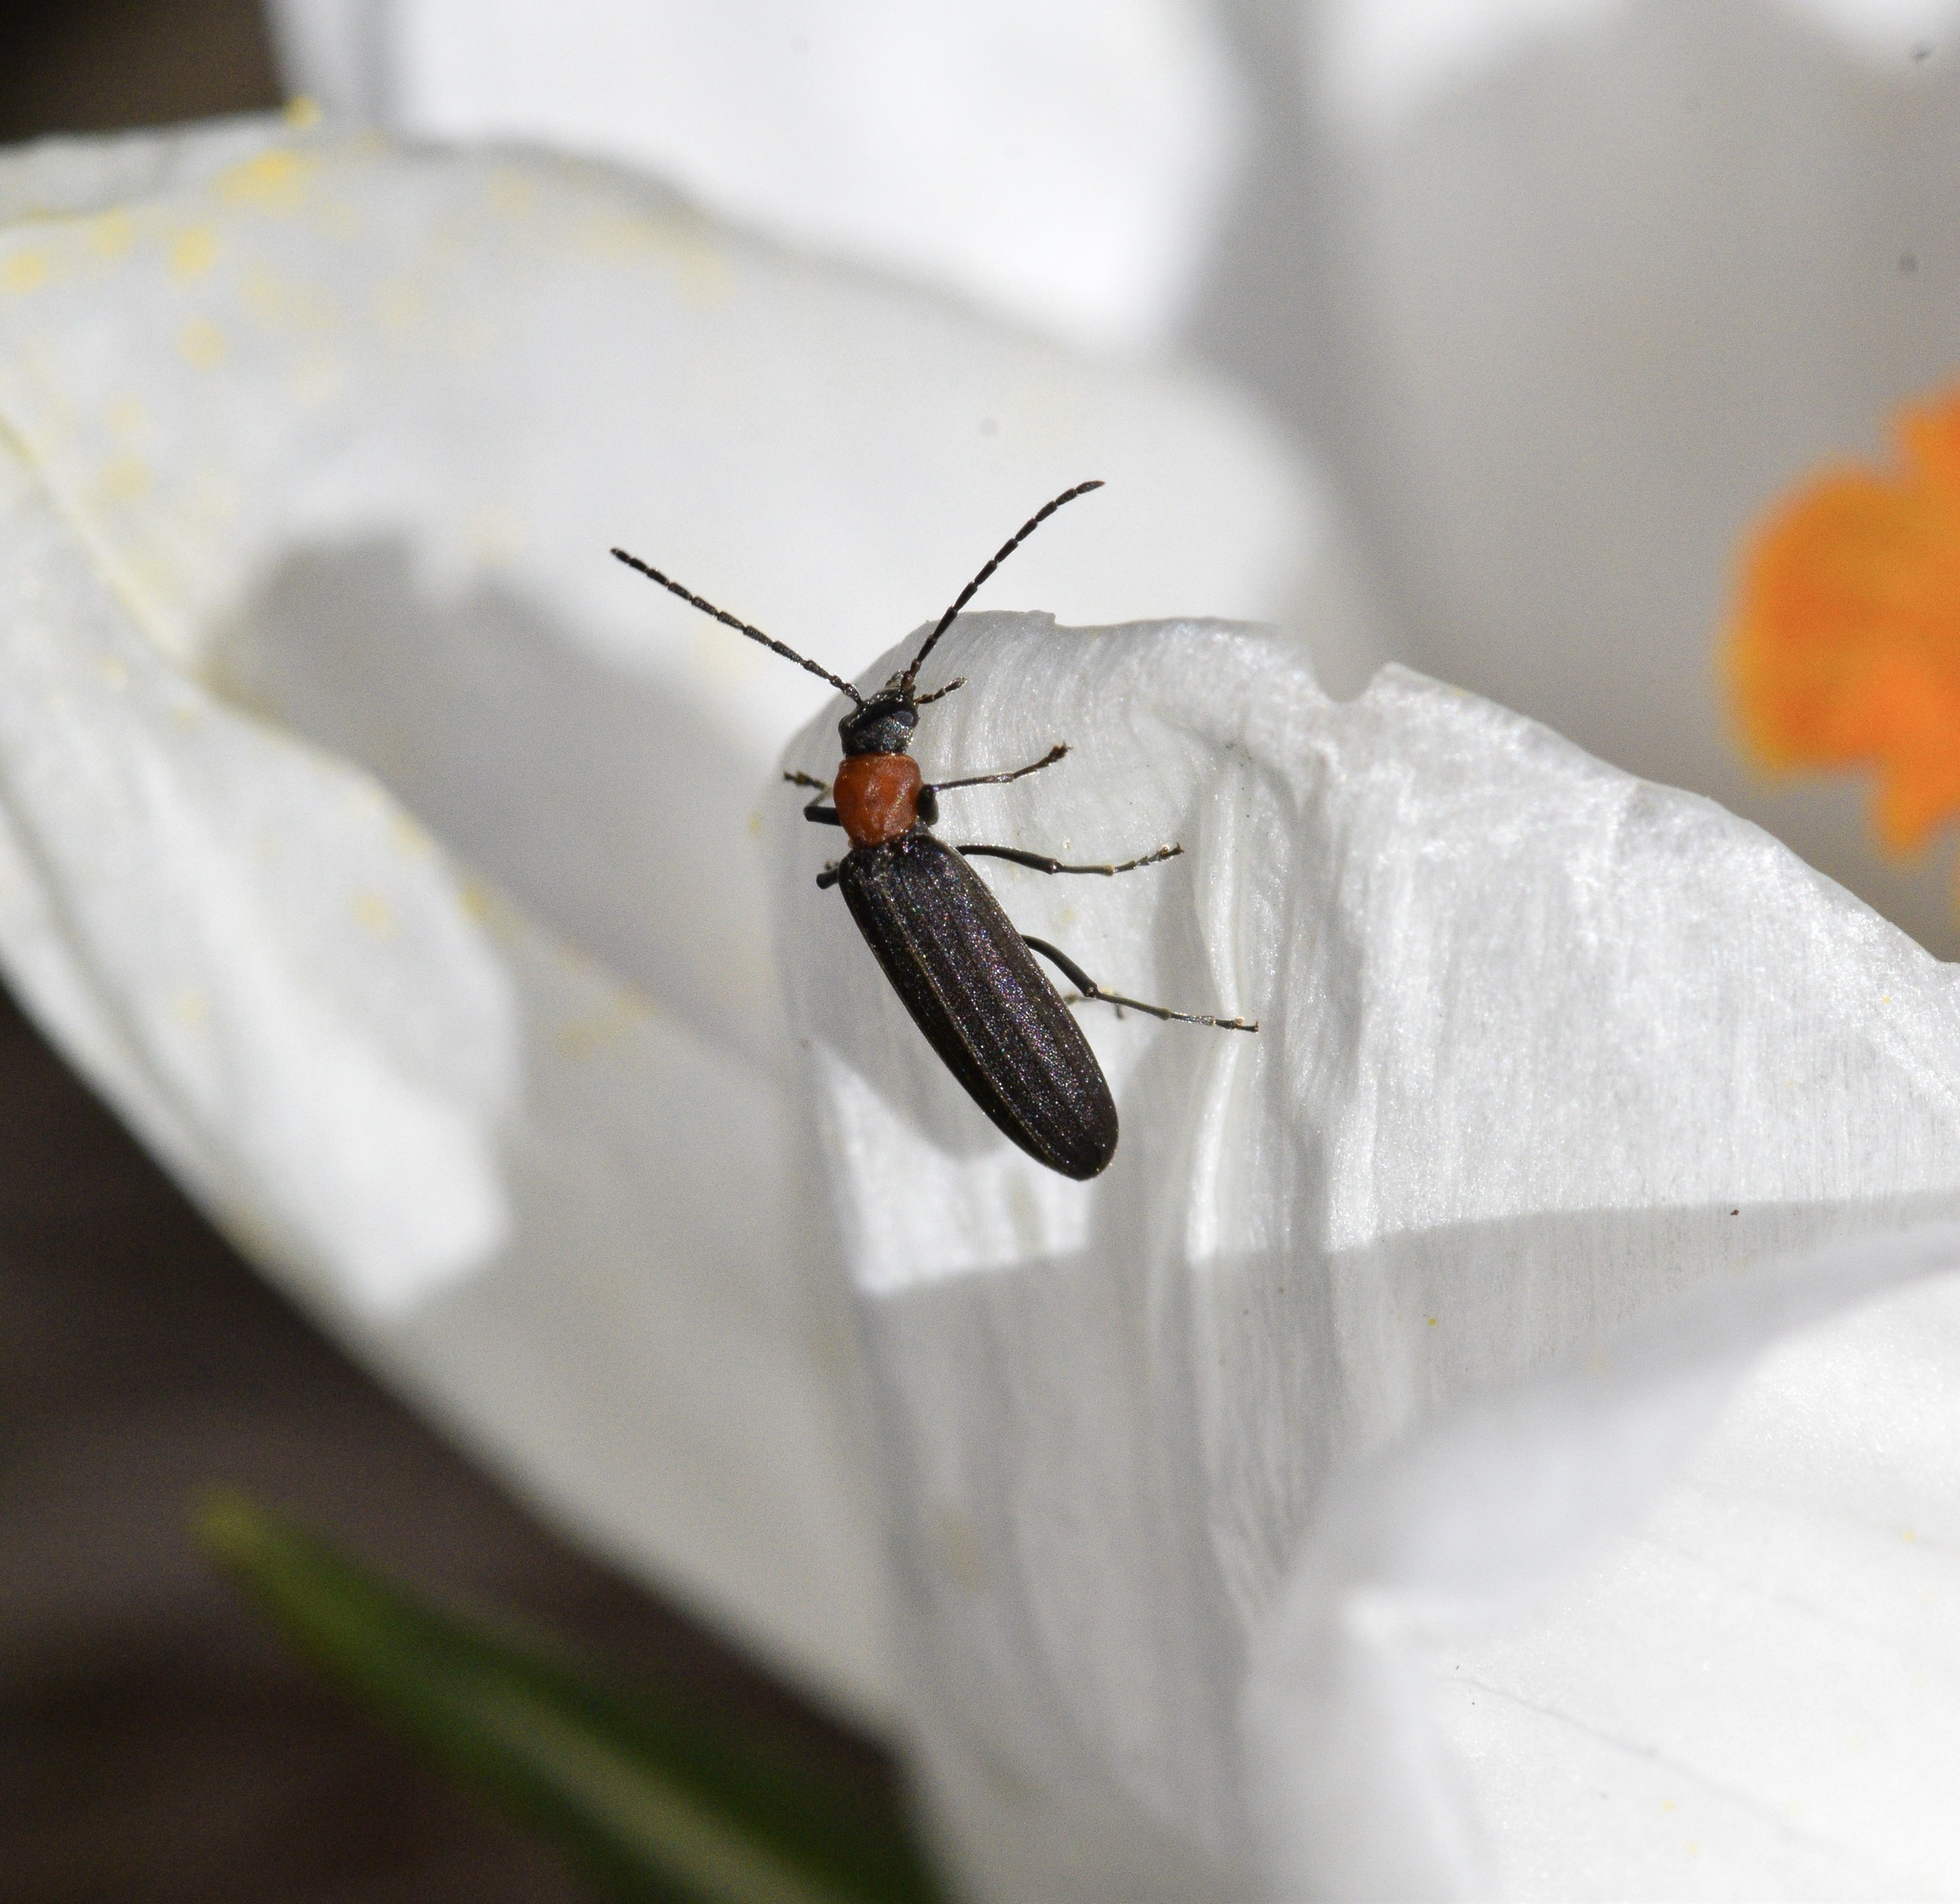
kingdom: Animalia
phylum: Arthropoda
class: Insecta
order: Coleoptera
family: Oedemeridae
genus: Ischnomera
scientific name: Ischnomera
